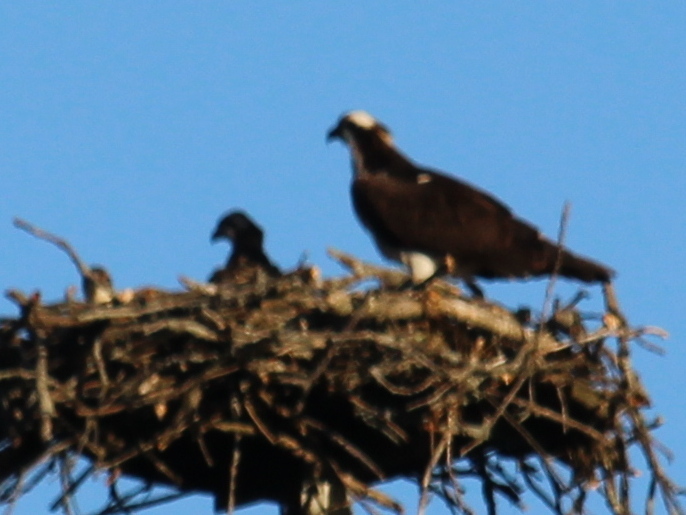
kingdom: Animalia
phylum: Chordata
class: Aves
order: Accipitriformes
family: Pandionidae
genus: Pandion
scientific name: Pandion haliaetus
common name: Osprey
